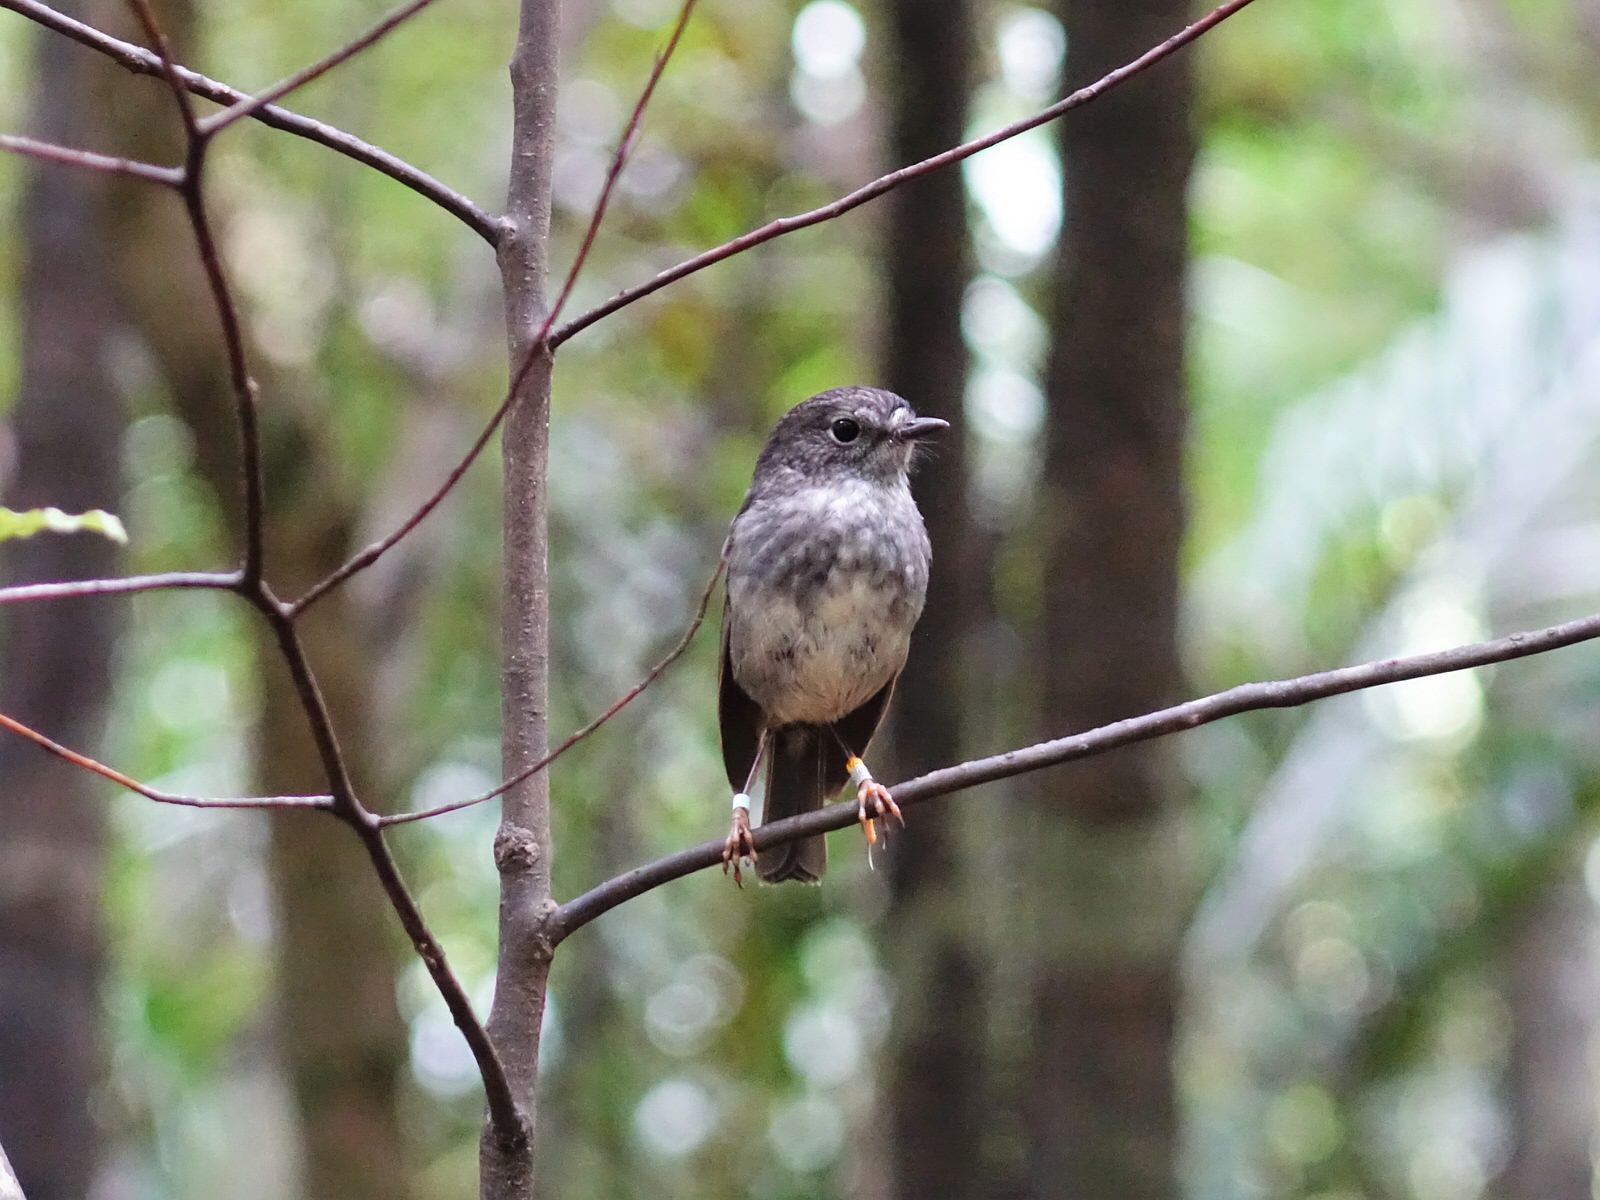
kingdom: Animalia
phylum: Chordata
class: Aves
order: Passeriformes
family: Petroicidae
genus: Petroica
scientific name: Petroica australis
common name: New zealand robin
